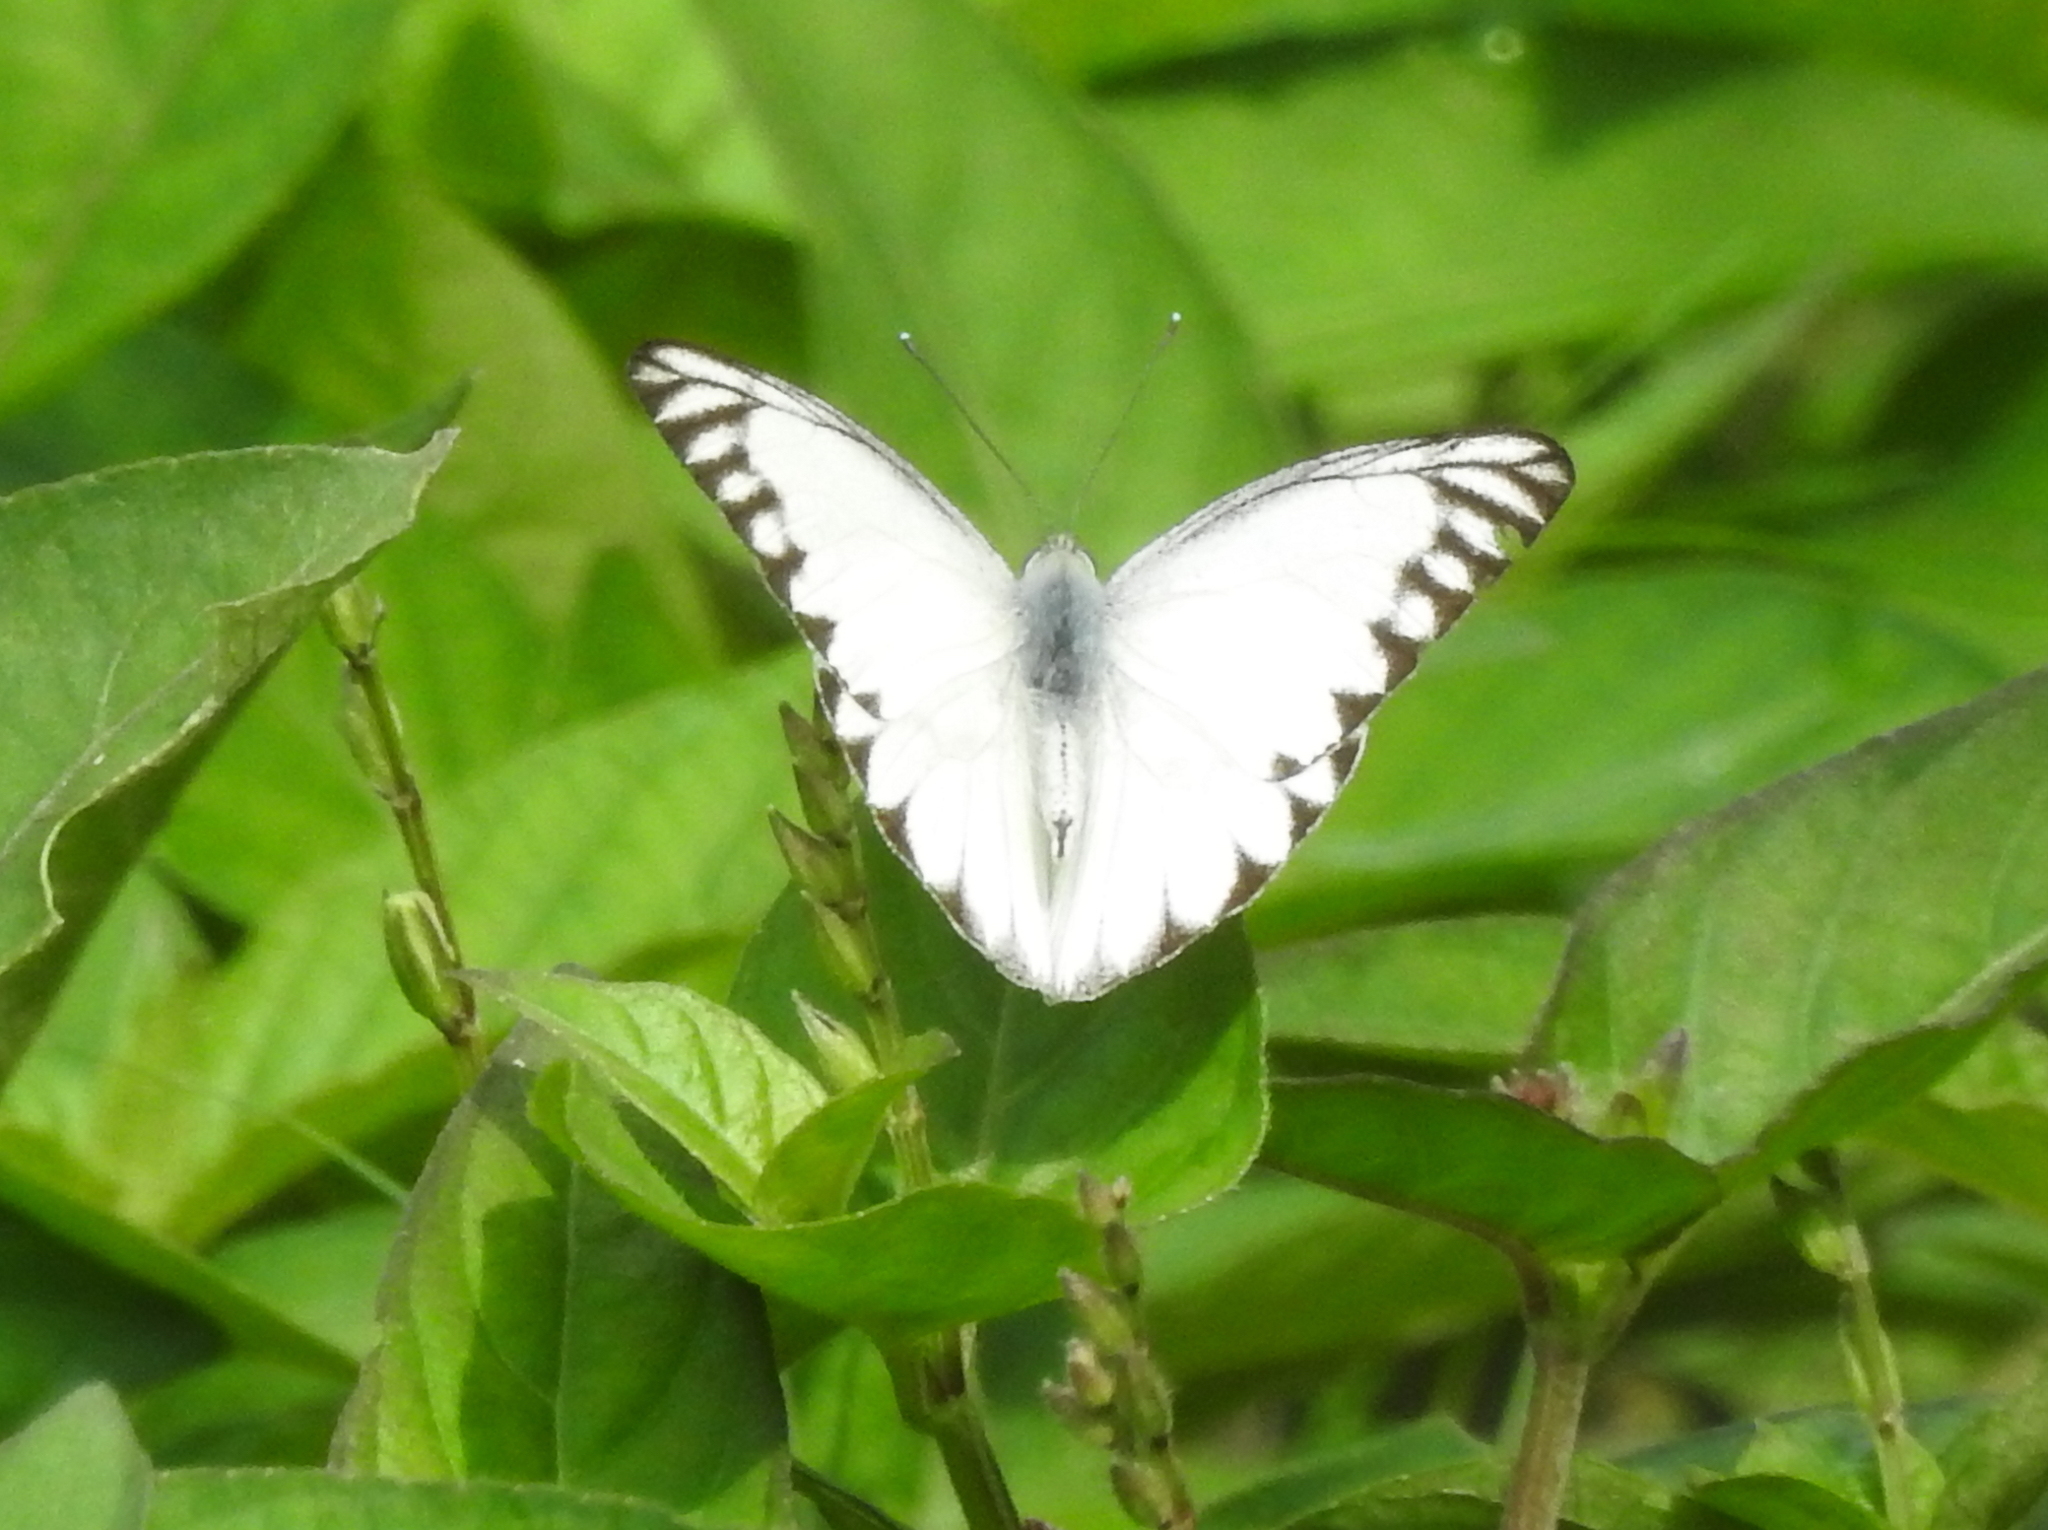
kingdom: Animalia
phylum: Arthropoda
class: Insecta
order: Lepidoptera
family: Pieridae
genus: Appias
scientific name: Appias libythea
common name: Striped albatross
